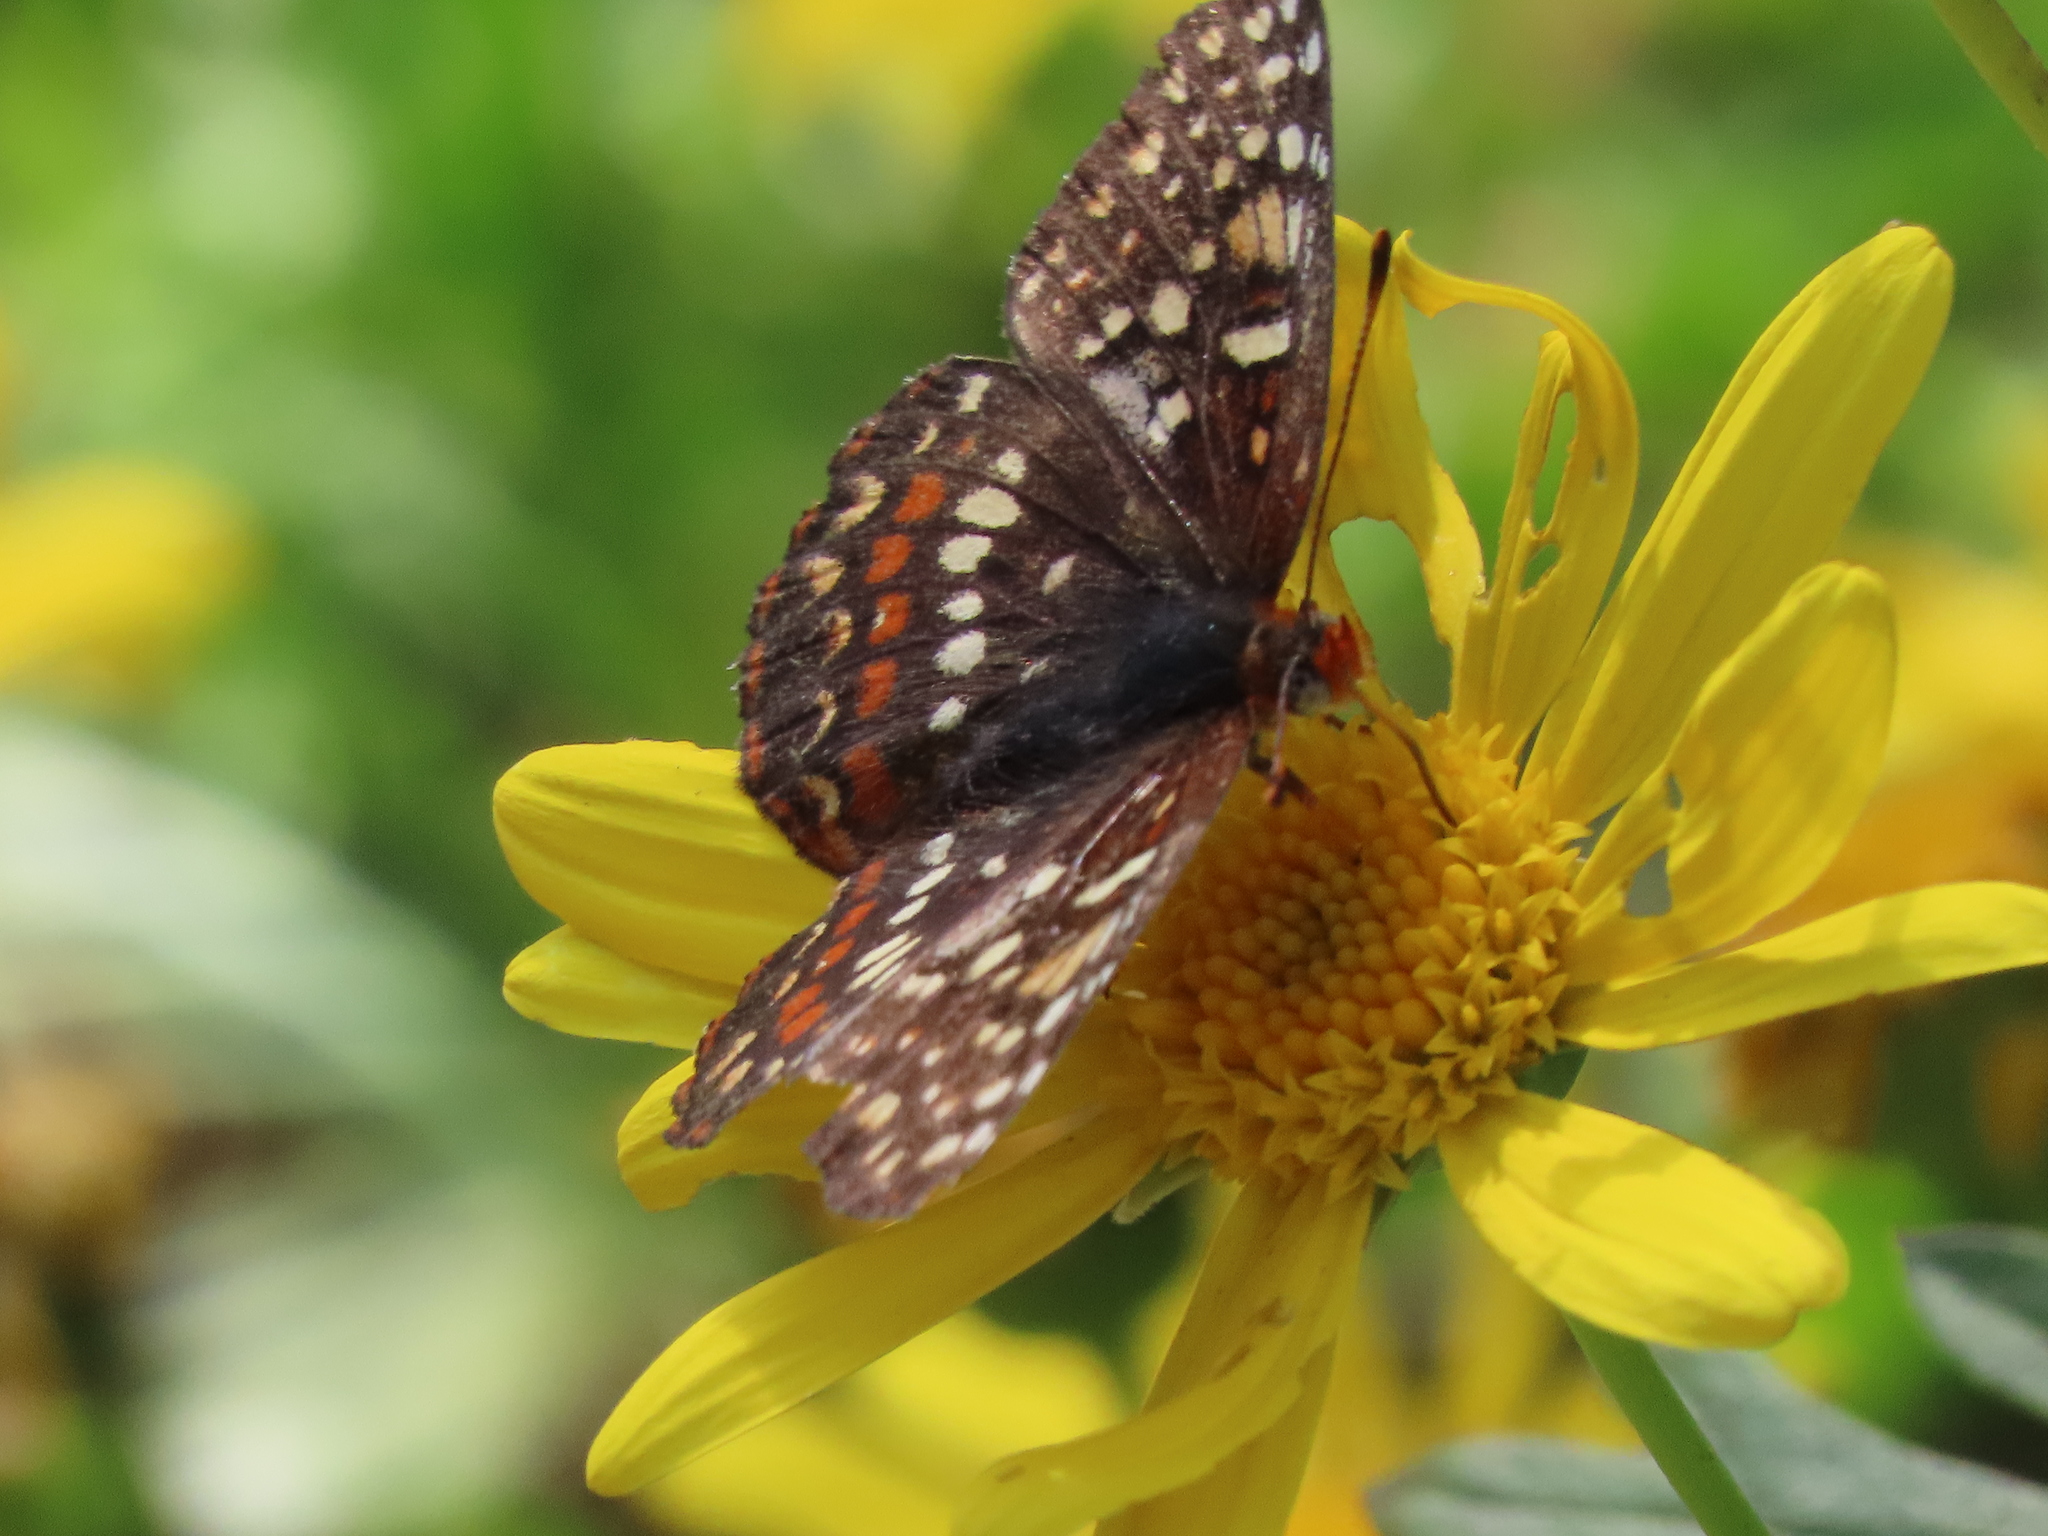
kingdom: Animalia
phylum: Arthropoda
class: Insecta
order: Lepidoptera
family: Nymphalidae
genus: Chlosyne
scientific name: Chlosyne palla
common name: Northern checkerspot
